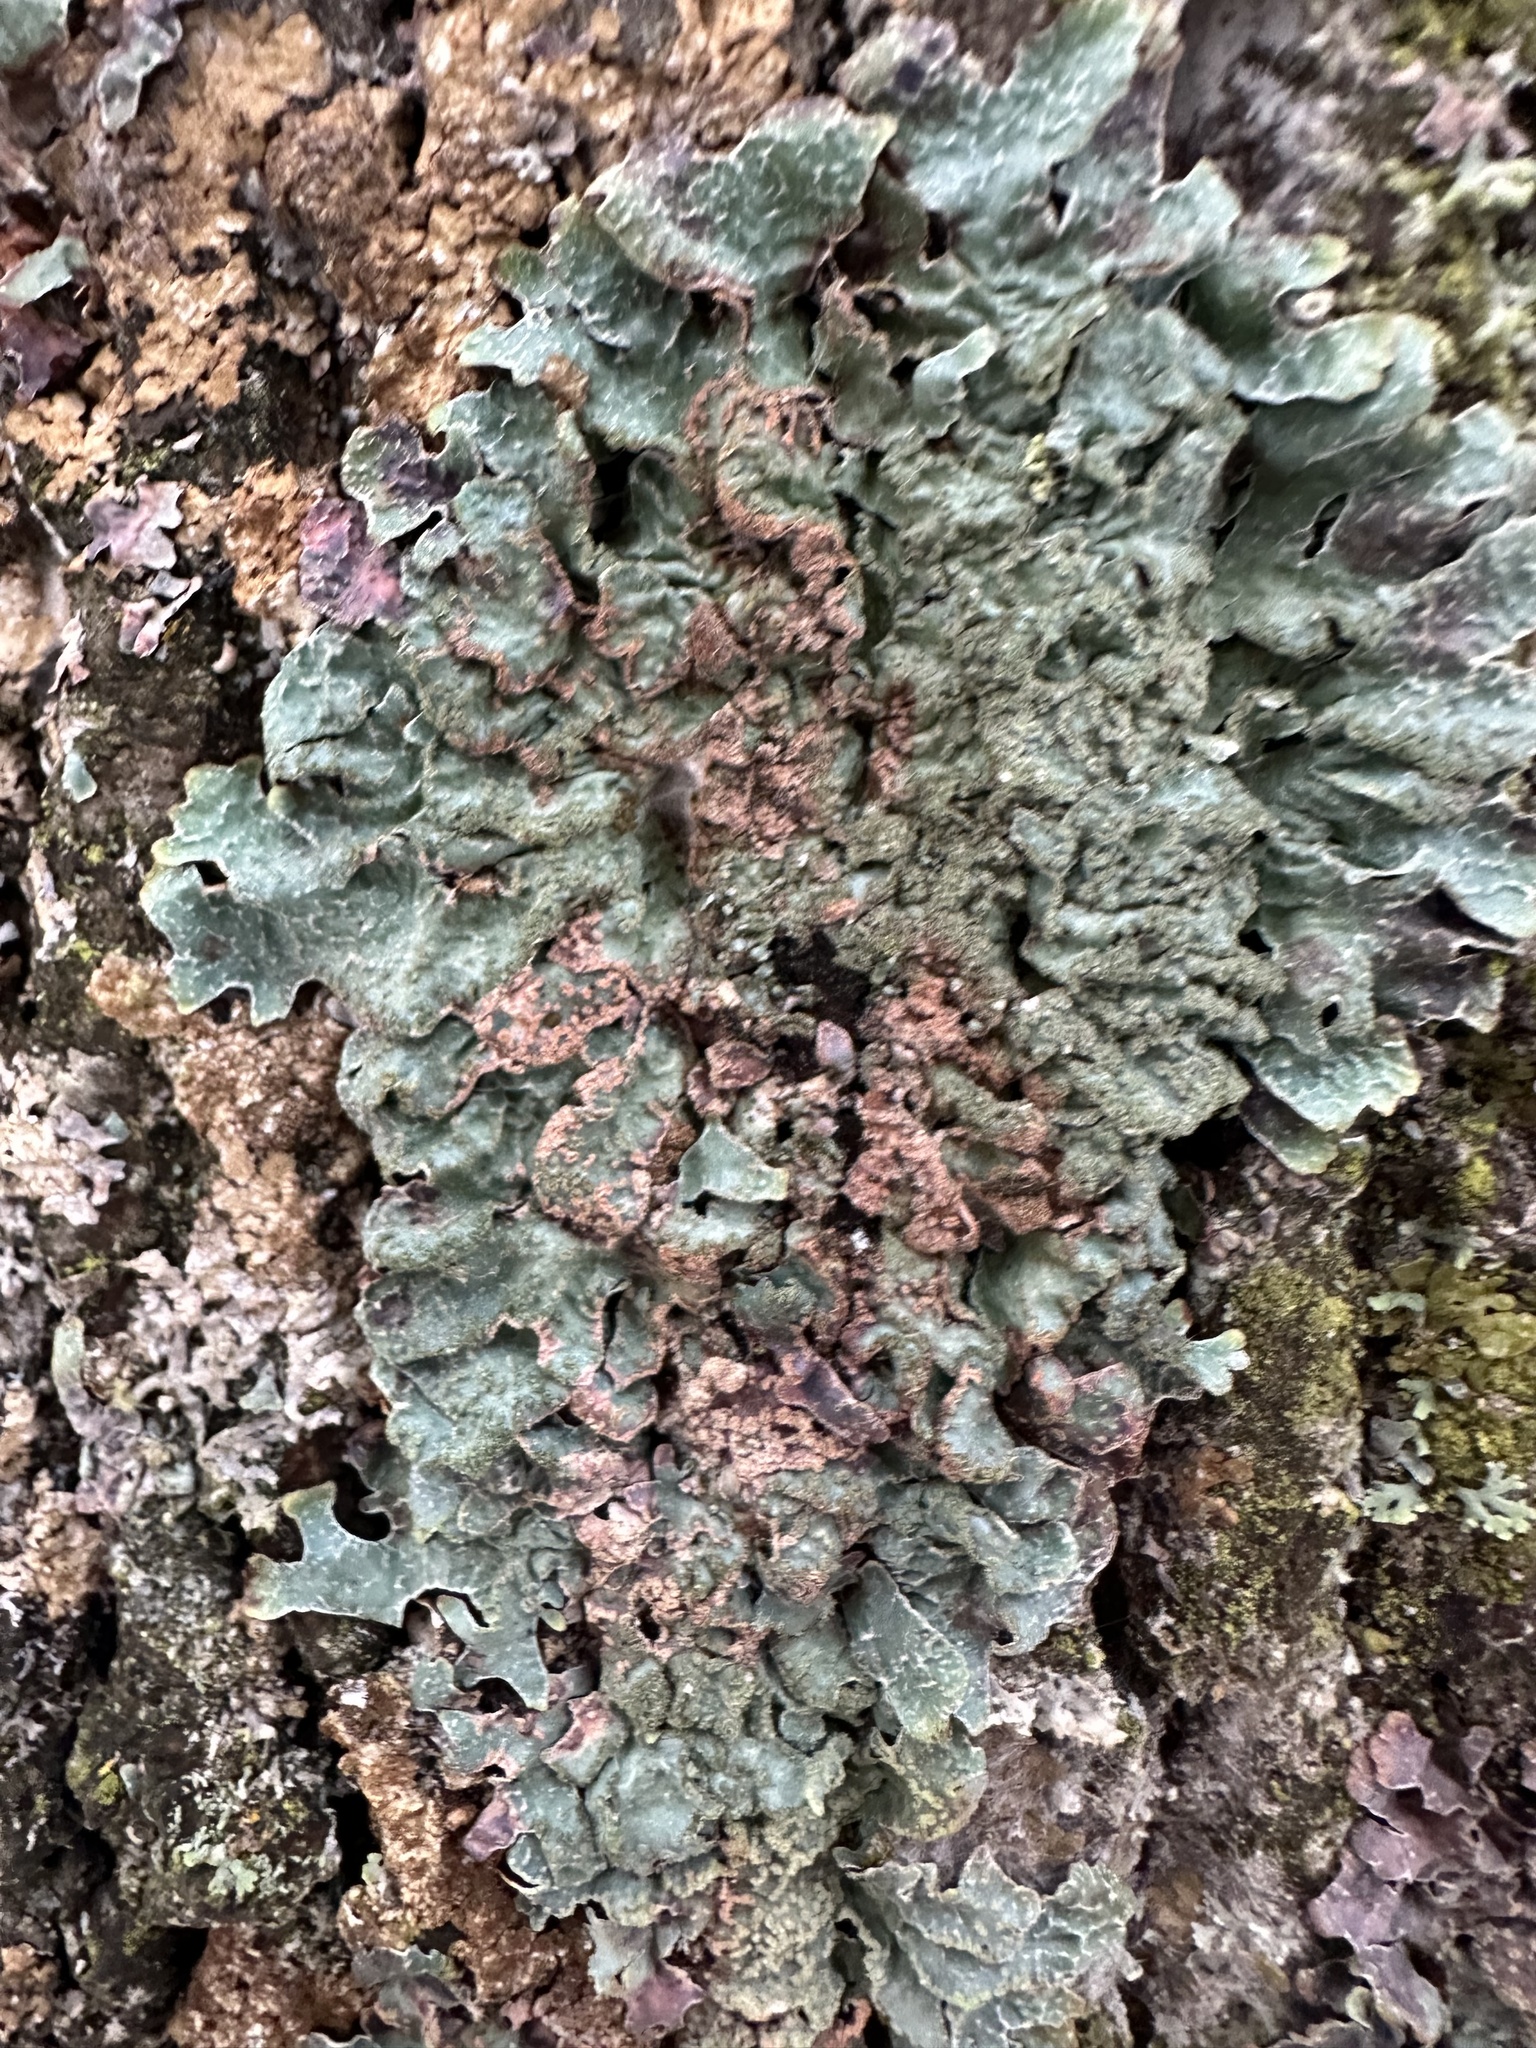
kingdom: Fungi
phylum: Ascomycota
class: Lecanoromycetes
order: Lecanorales
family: Parmeliaceae
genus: Parmelia
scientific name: Parmelia sulcata
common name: Netted shield lichen
